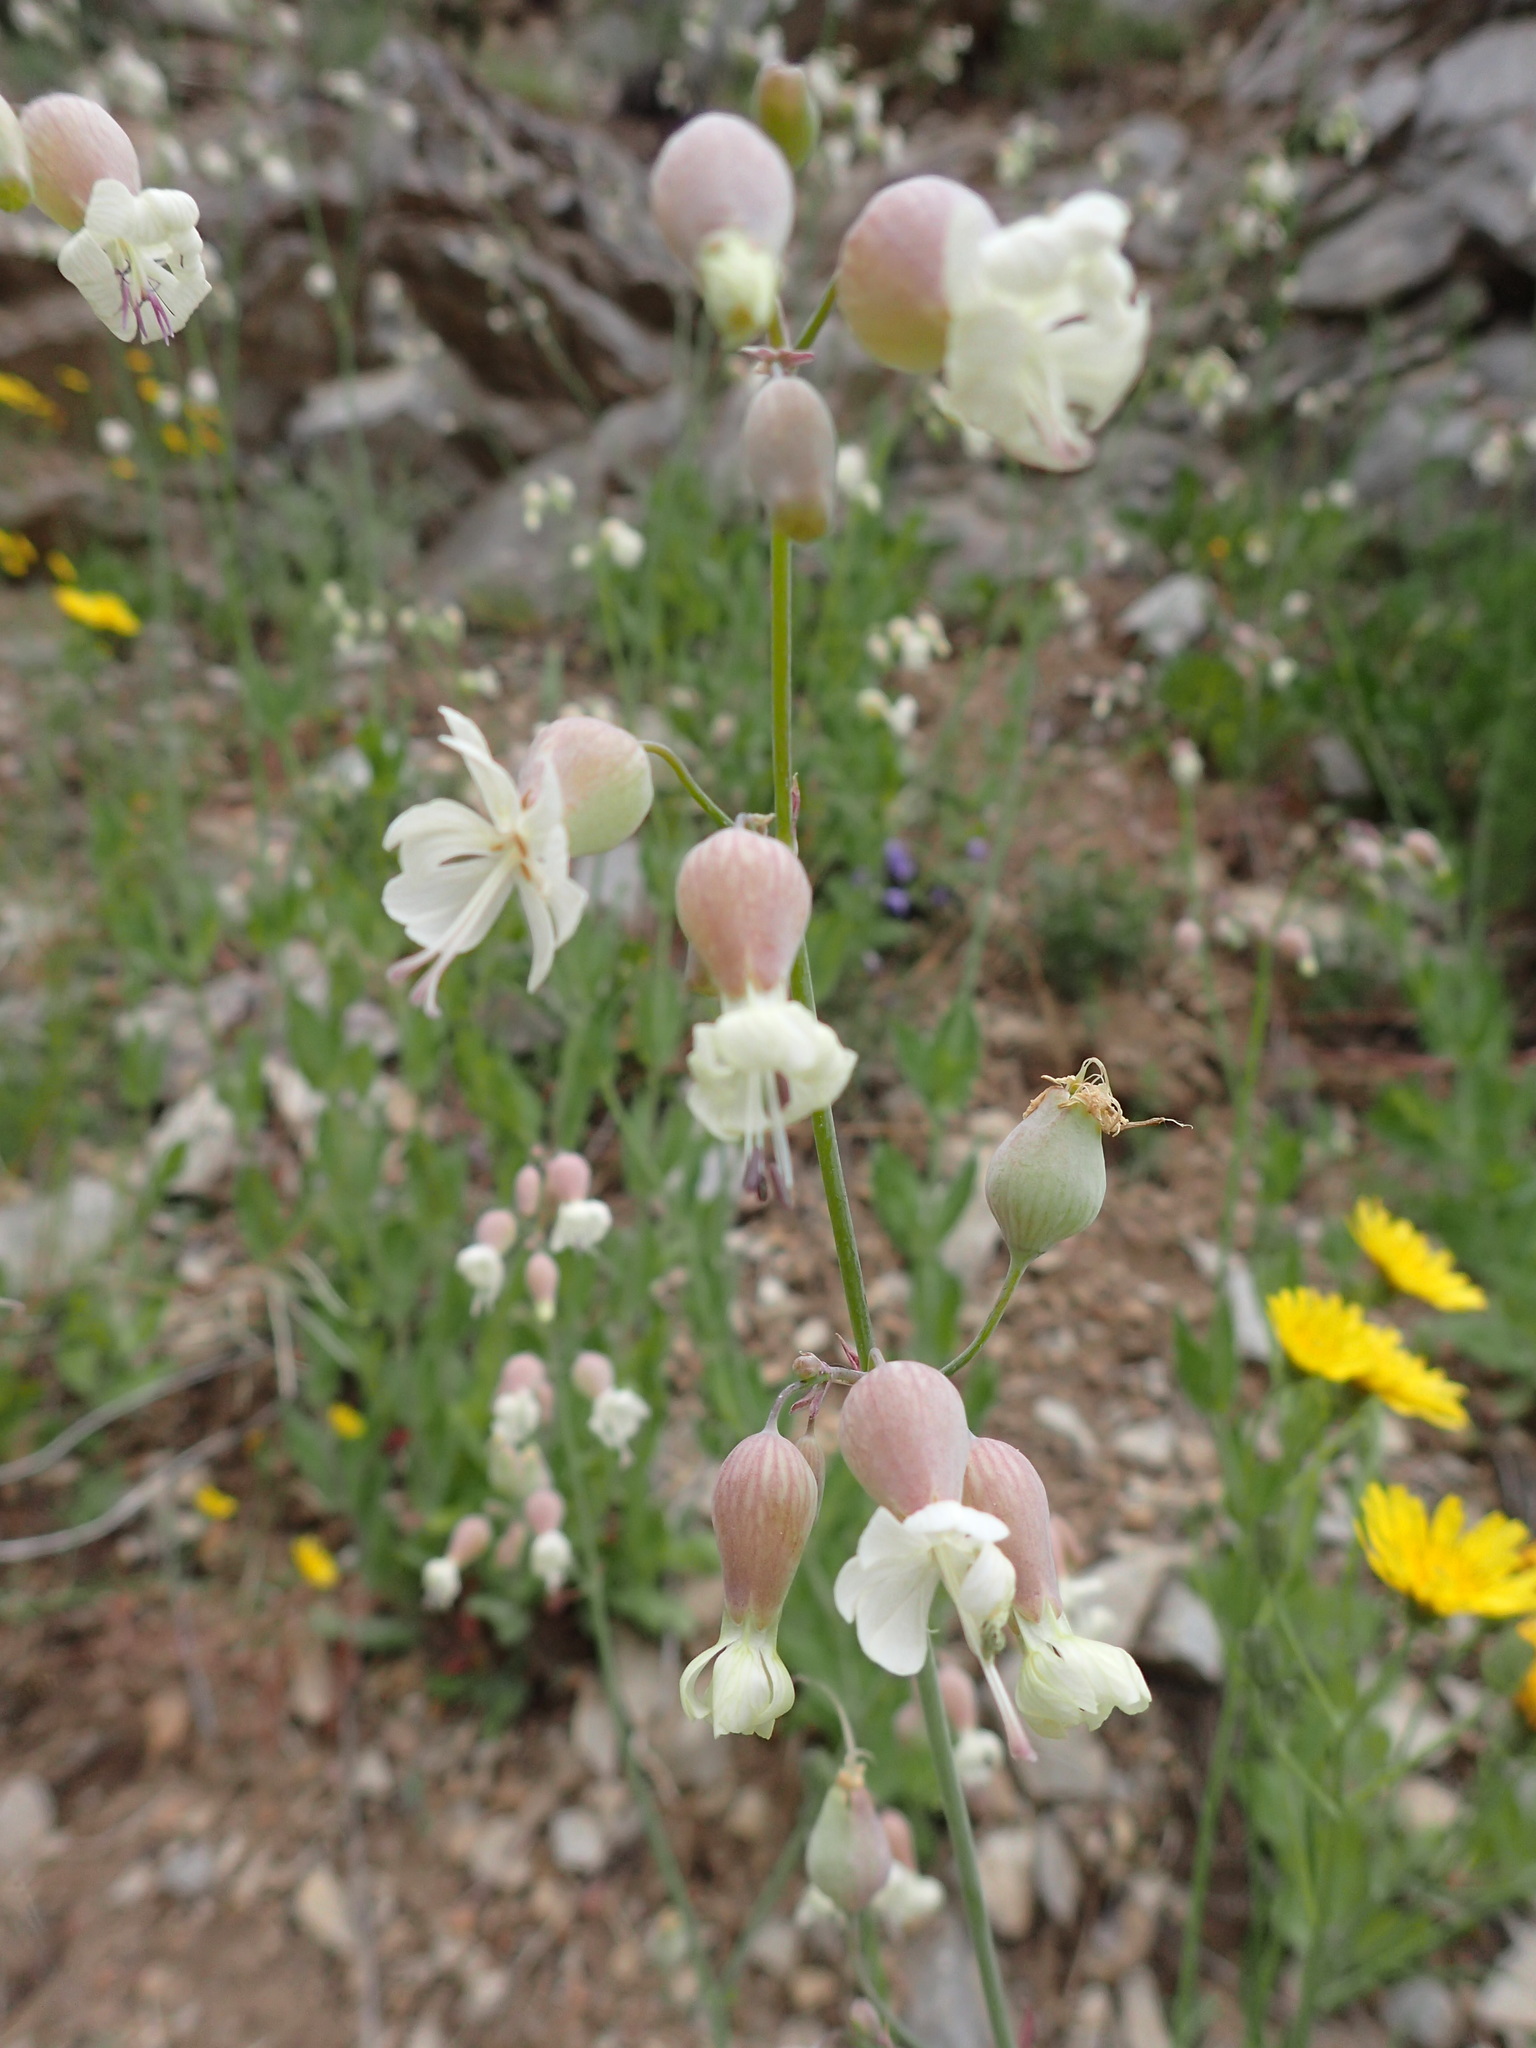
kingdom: Plantae
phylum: Tracheophyta
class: Magnoliopsida
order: Caryophyllales
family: Caryophyllaceae
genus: Silene
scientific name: Silene vulgaris
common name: Bladder campion
